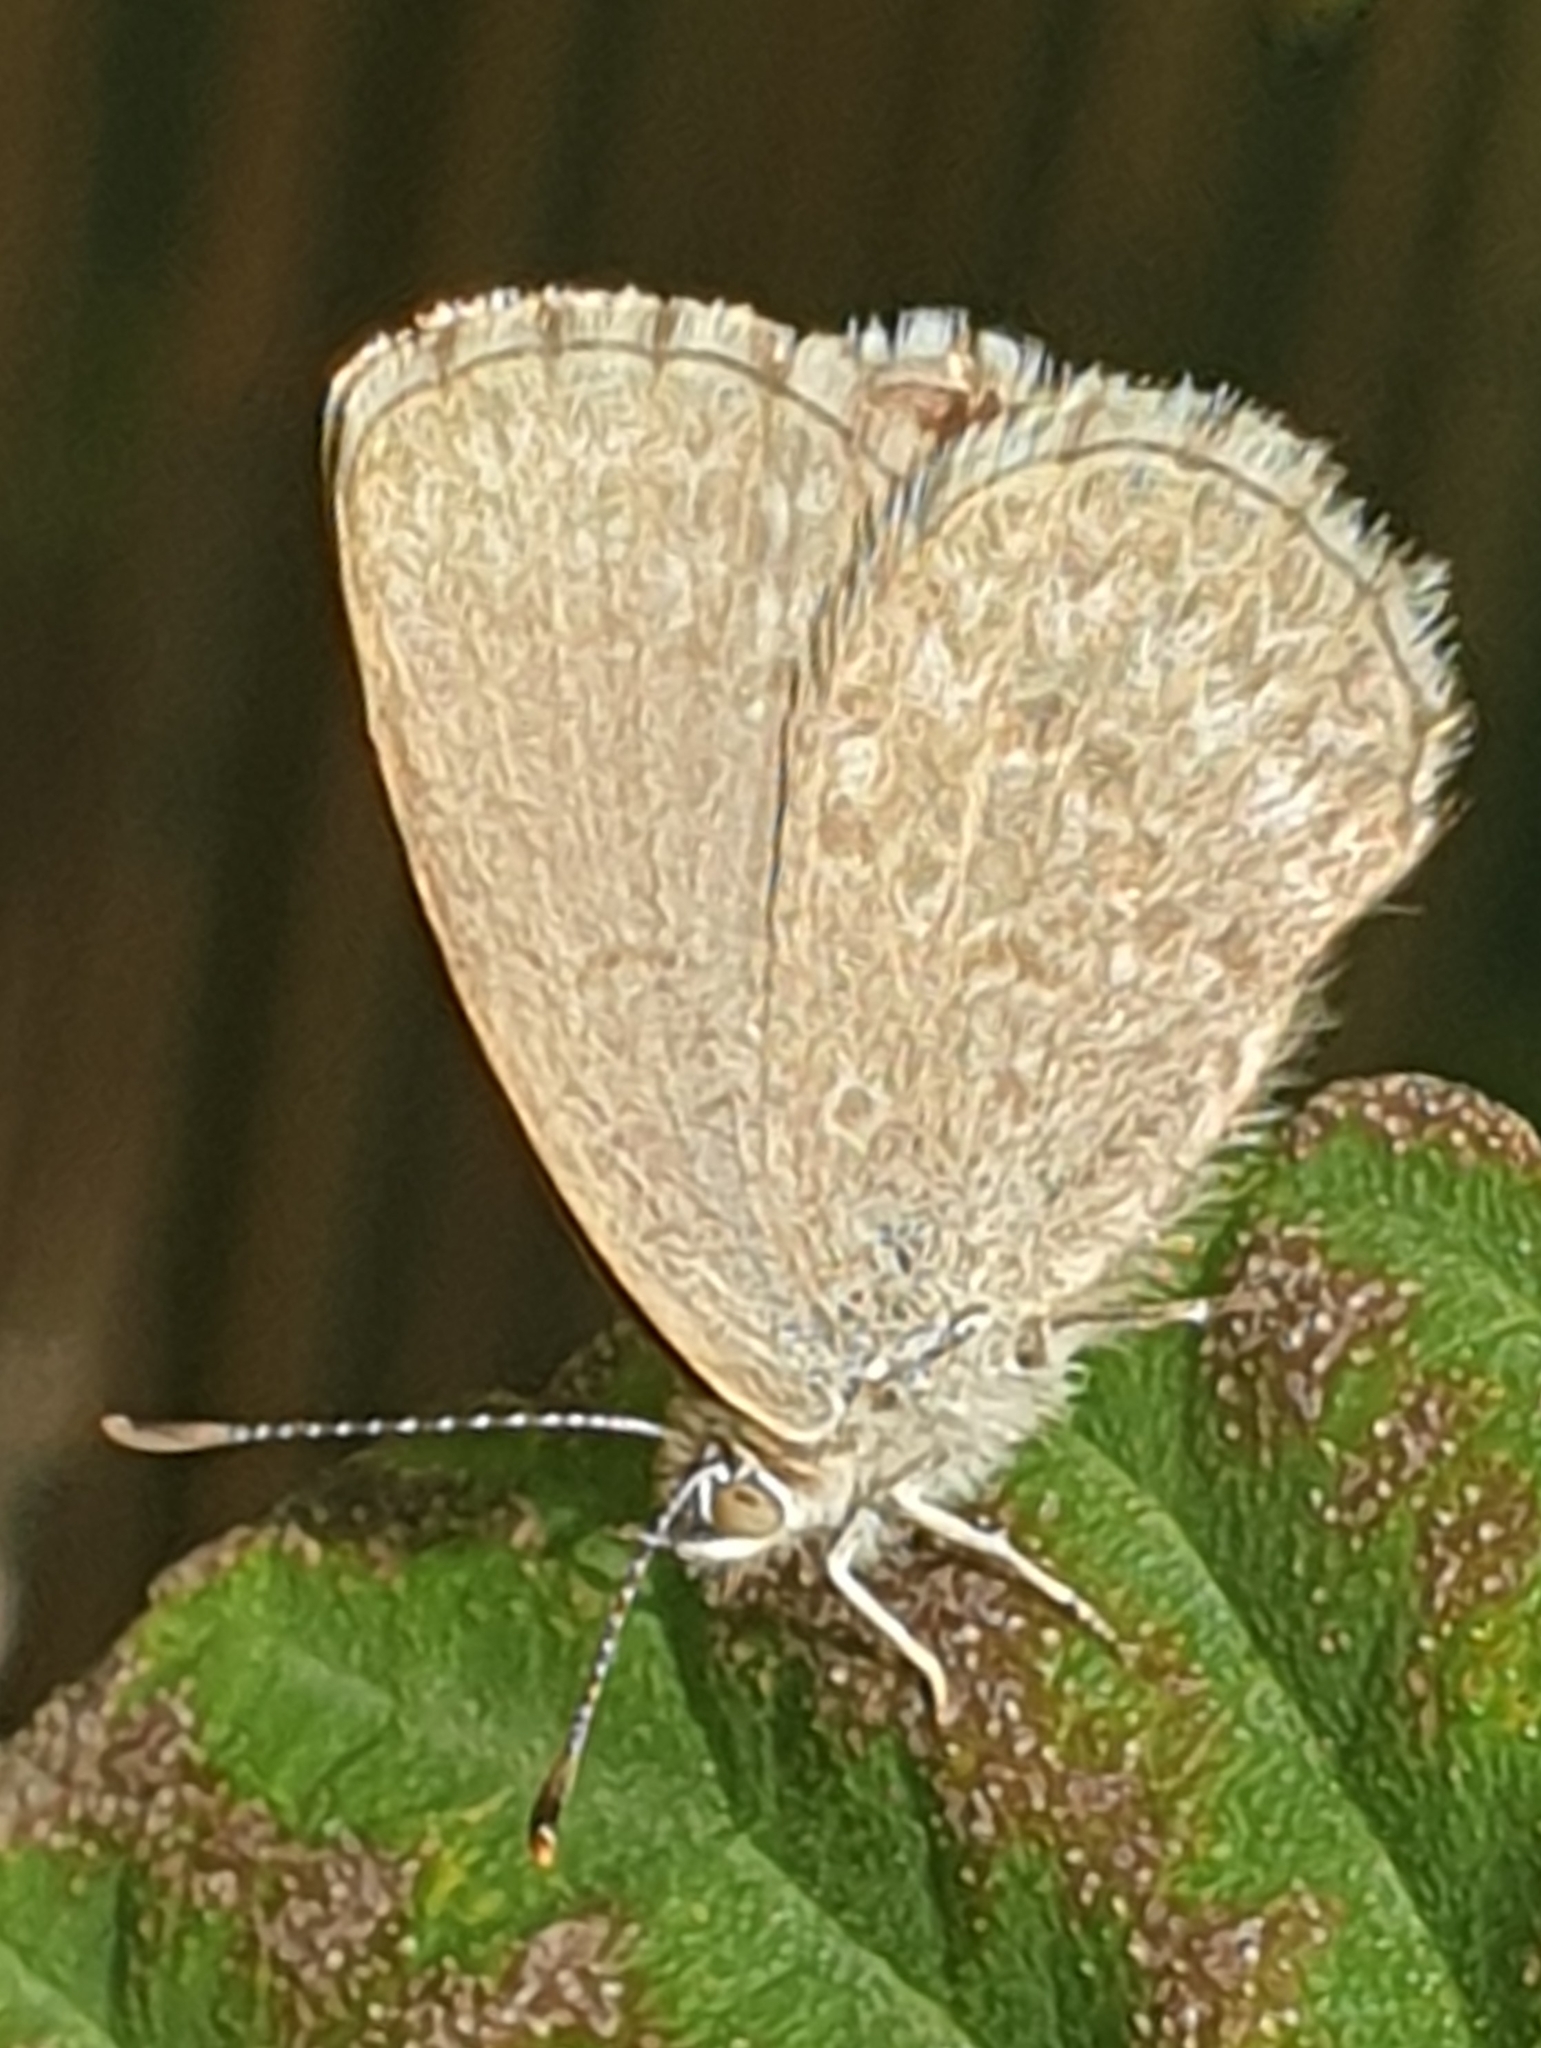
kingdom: Animalia
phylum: Arthropoda
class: Insecta
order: Lepidoptera
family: Lycaenidae
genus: Zizina
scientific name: Zizina labradus
